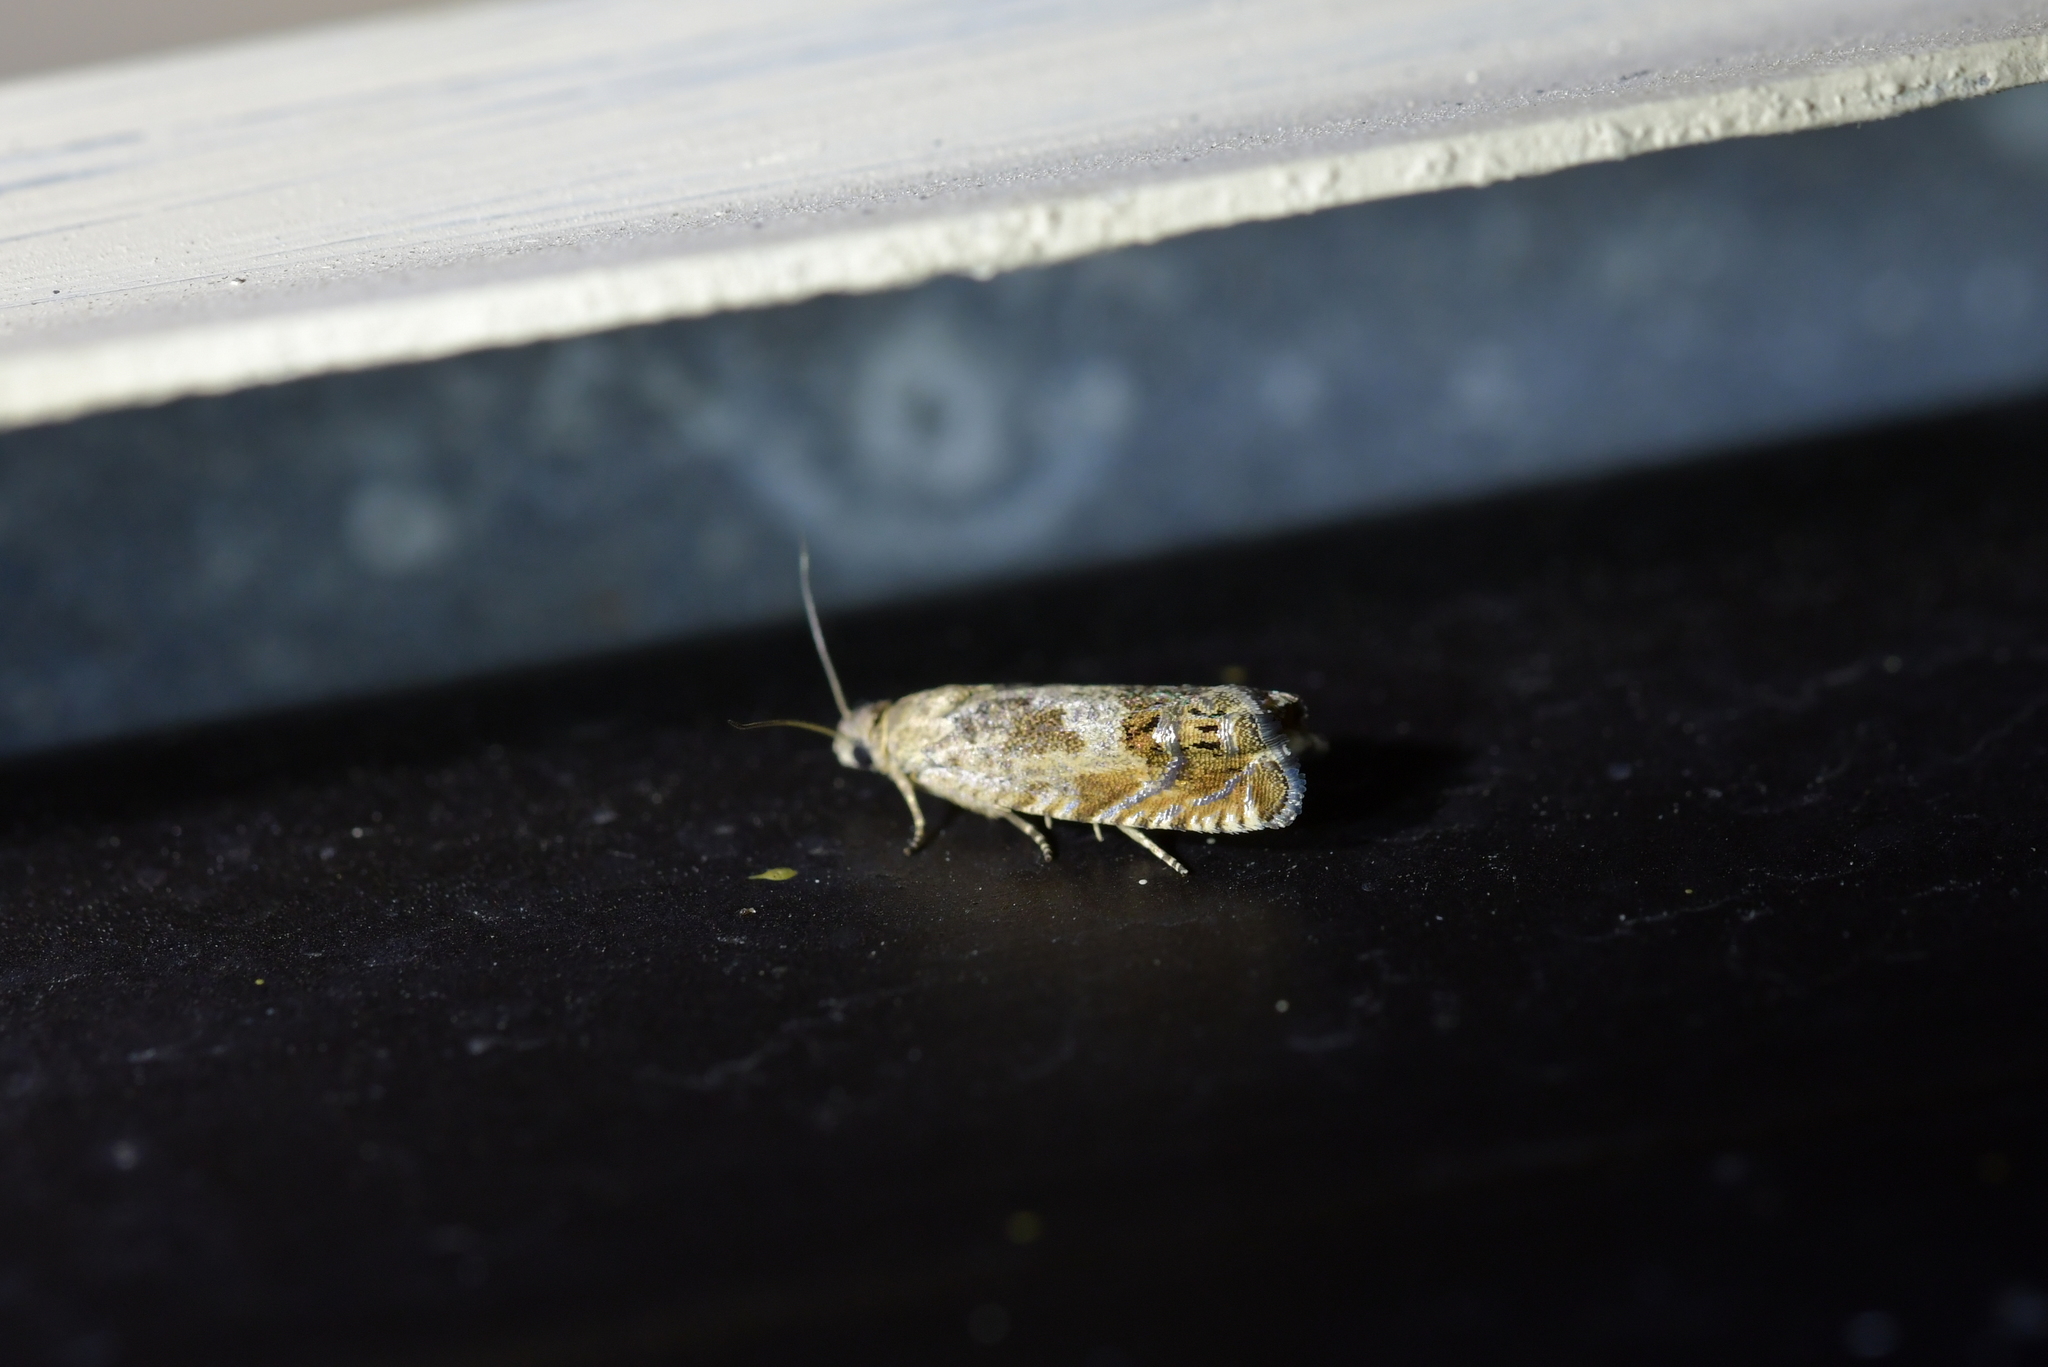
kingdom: Animalia
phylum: Arthropoda
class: Insecta
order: Lepidoptera
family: Tortricidae
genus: Cydia
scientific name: Cydia succedana
